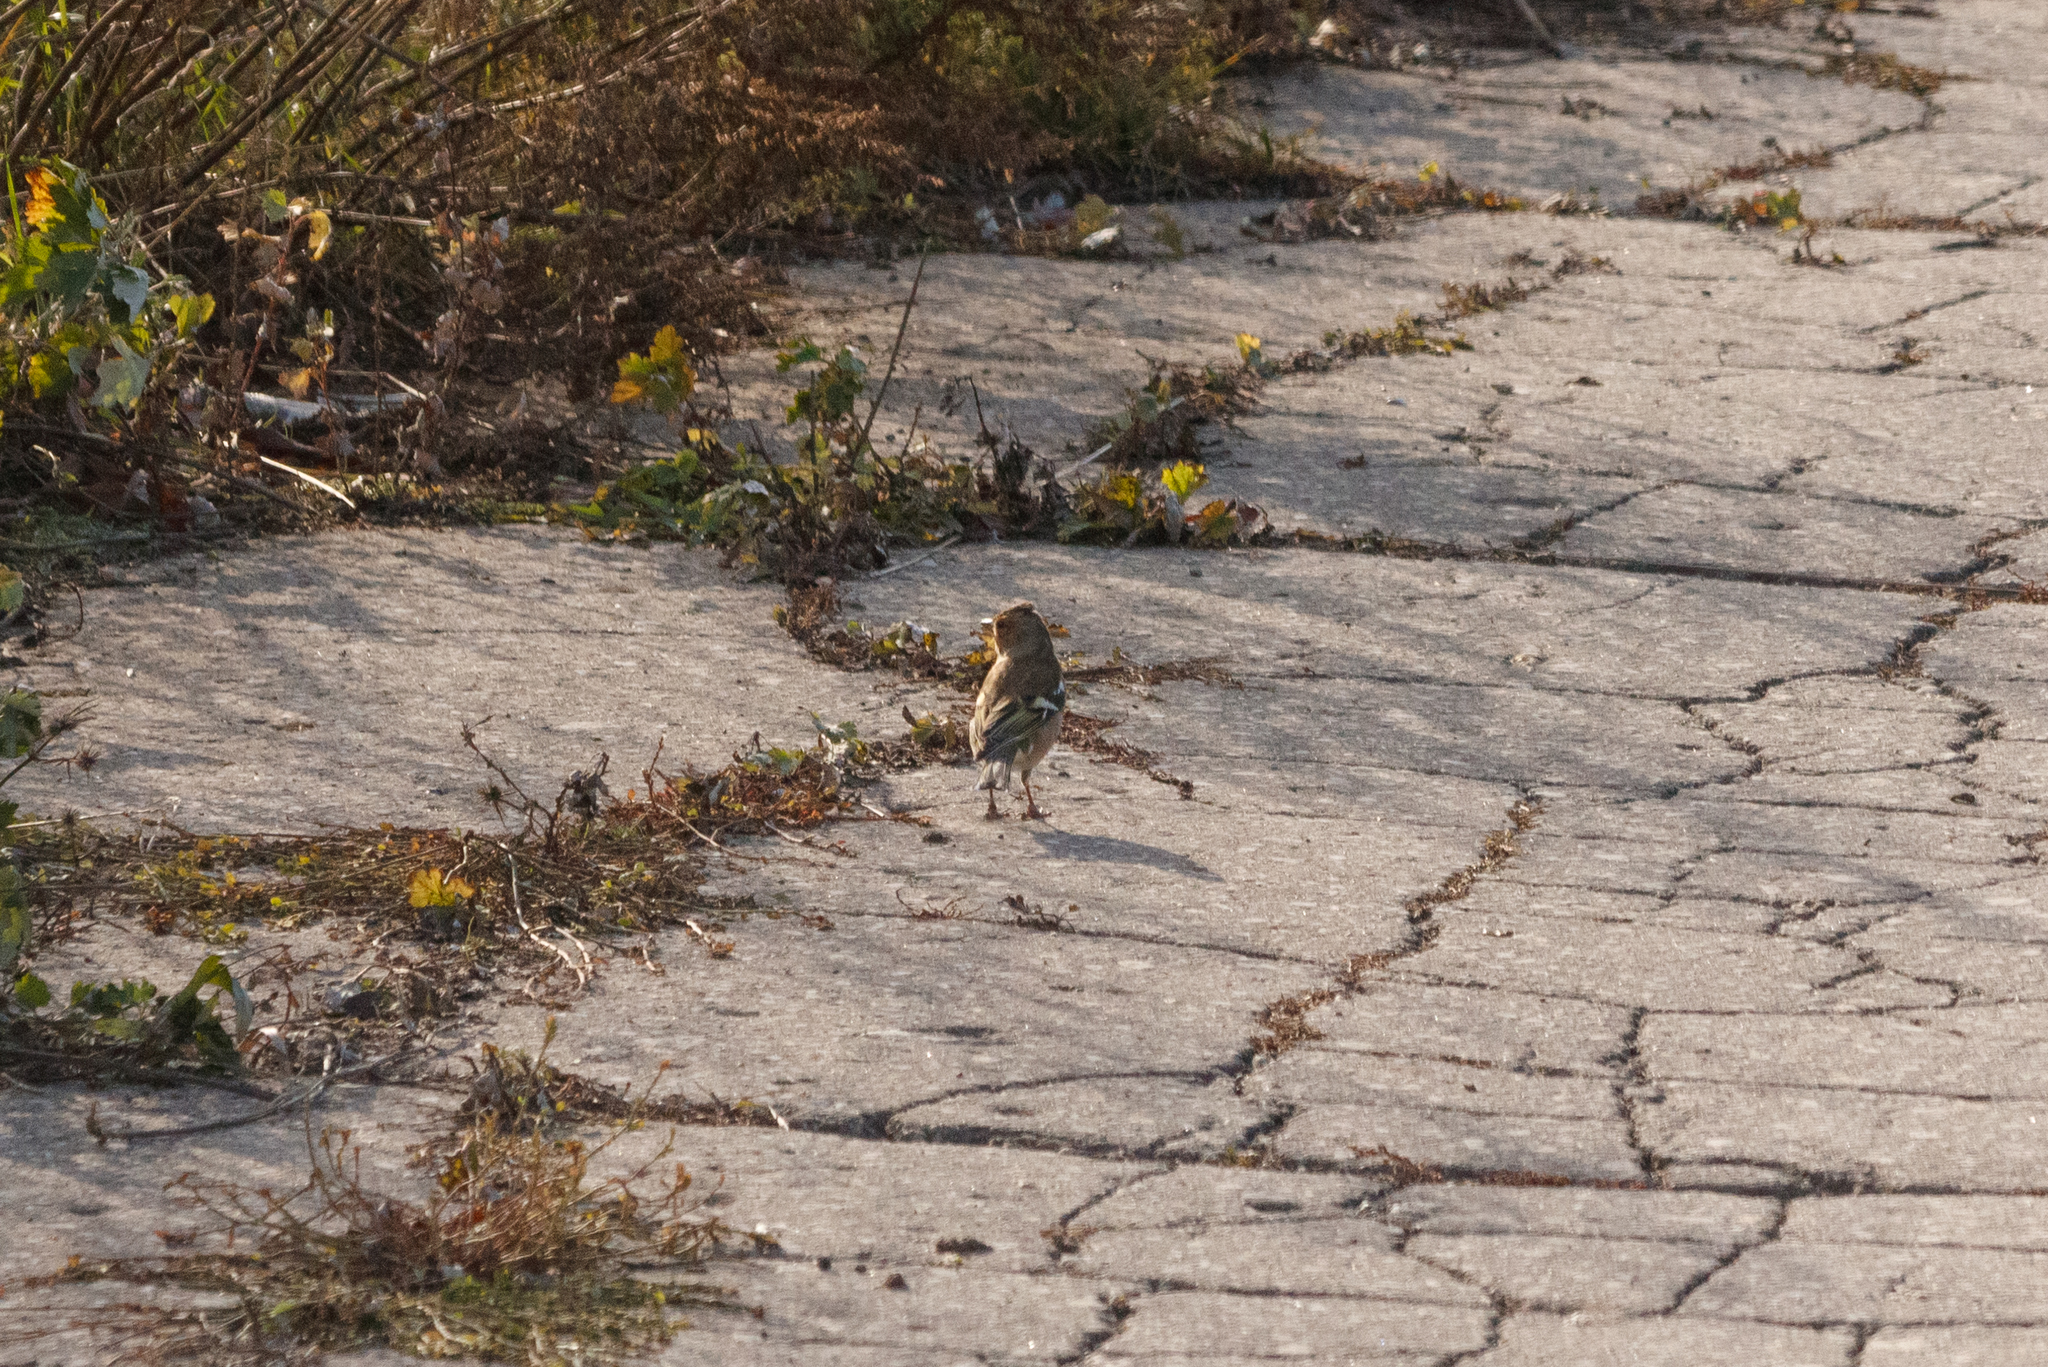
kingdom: Animalia
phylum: Chordata
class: Aves
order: Passeriformes
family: Fringillidae
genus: Fringilla
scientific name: Fringilla coelebs
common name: Common chaffinch
